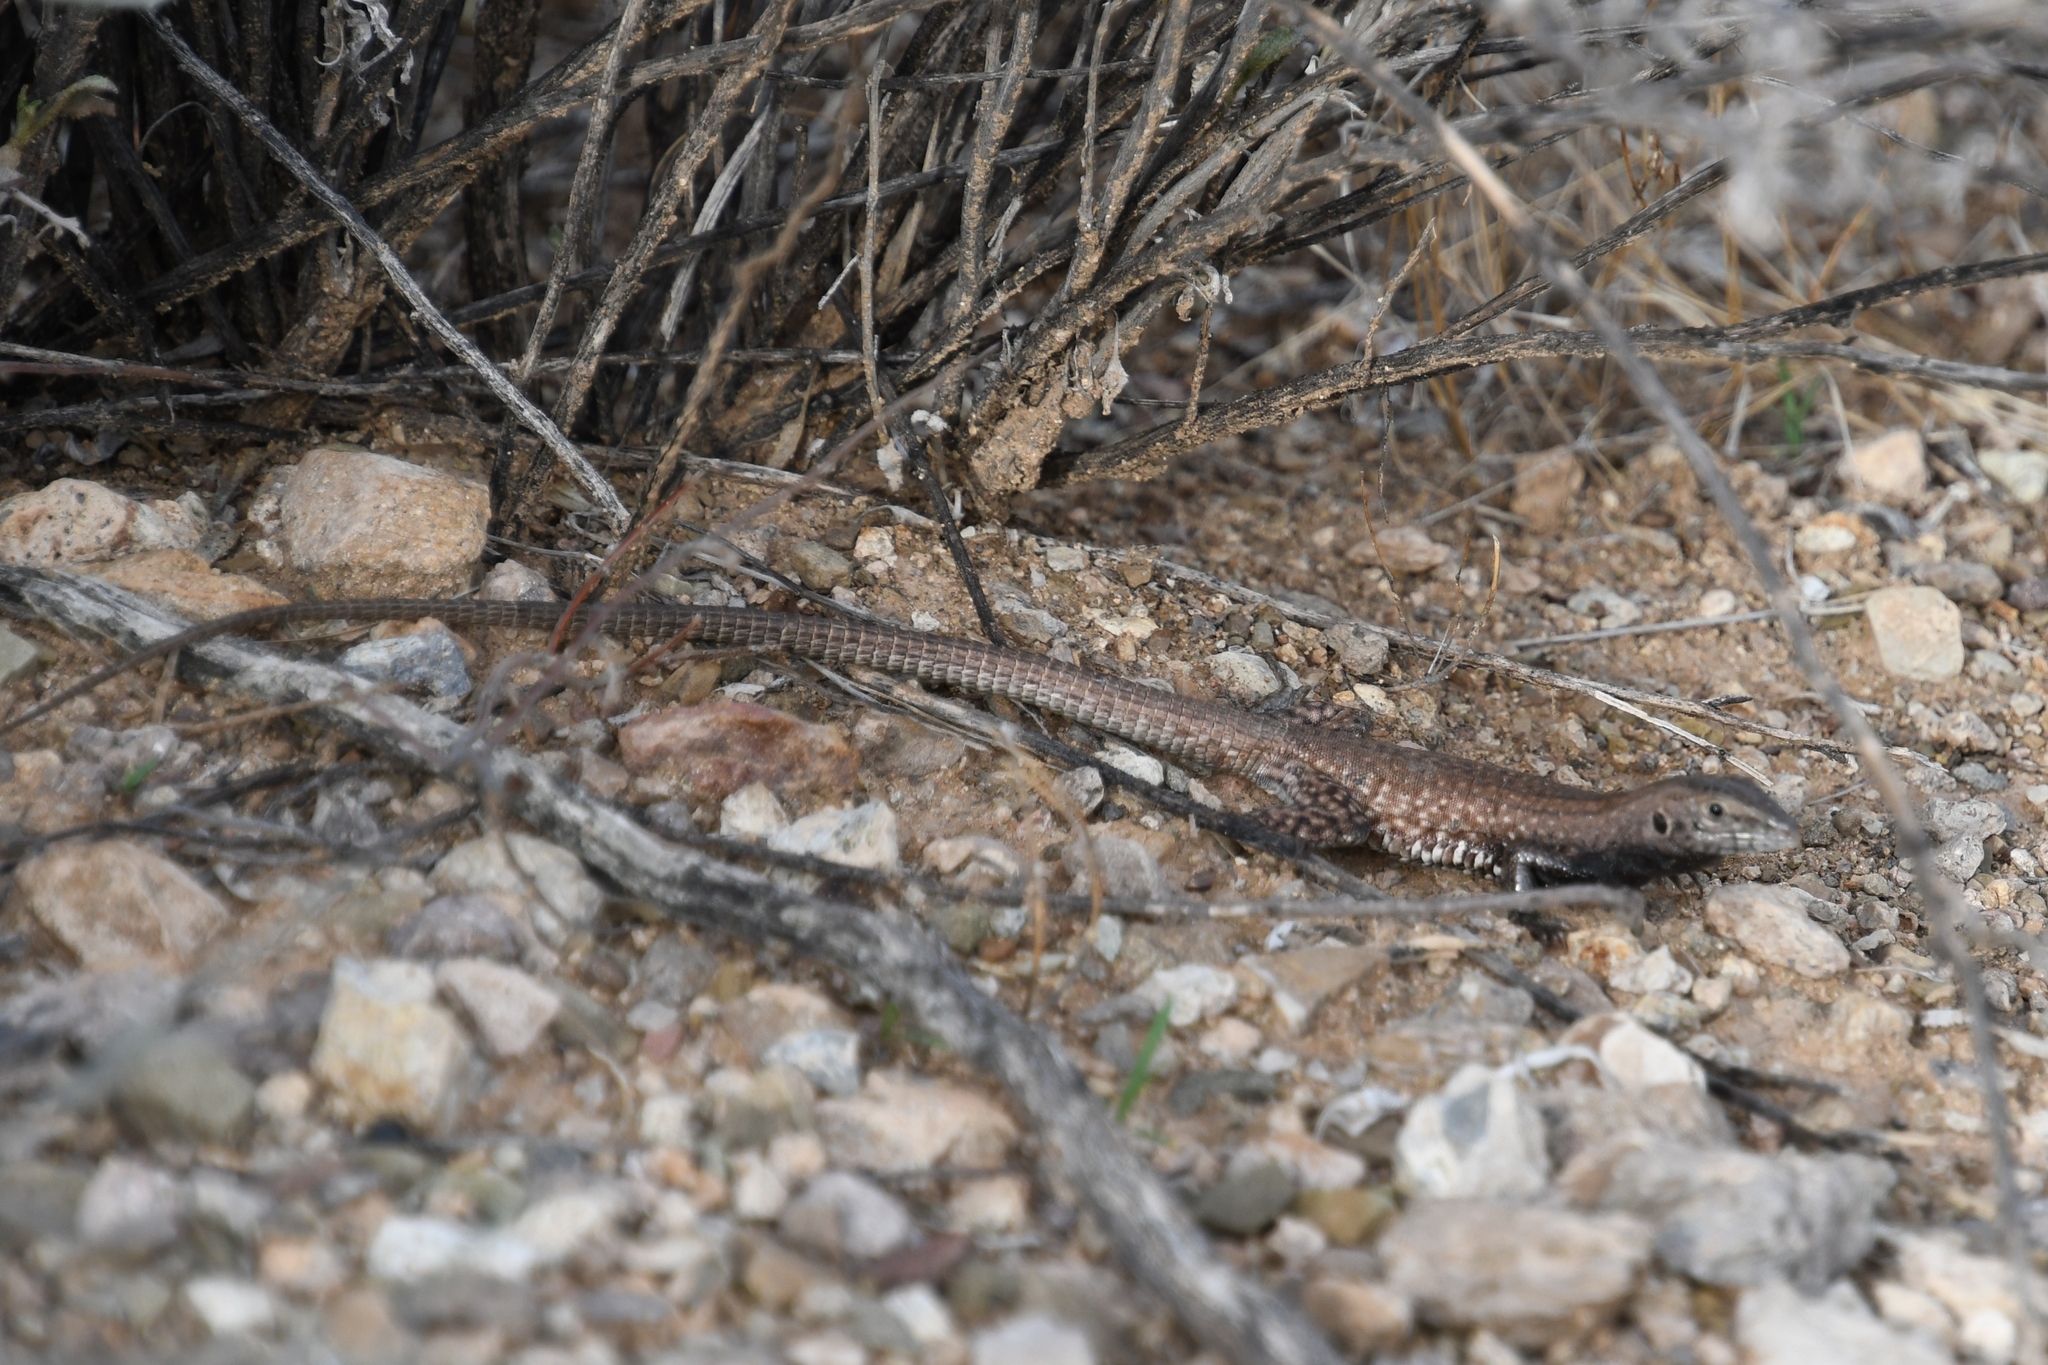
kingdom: Animalia
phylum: Chordata
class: Squamata
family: Teiidae
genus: Aspidoscelis
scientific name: Aspidoscelis tigris
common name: Tiger whiptail
